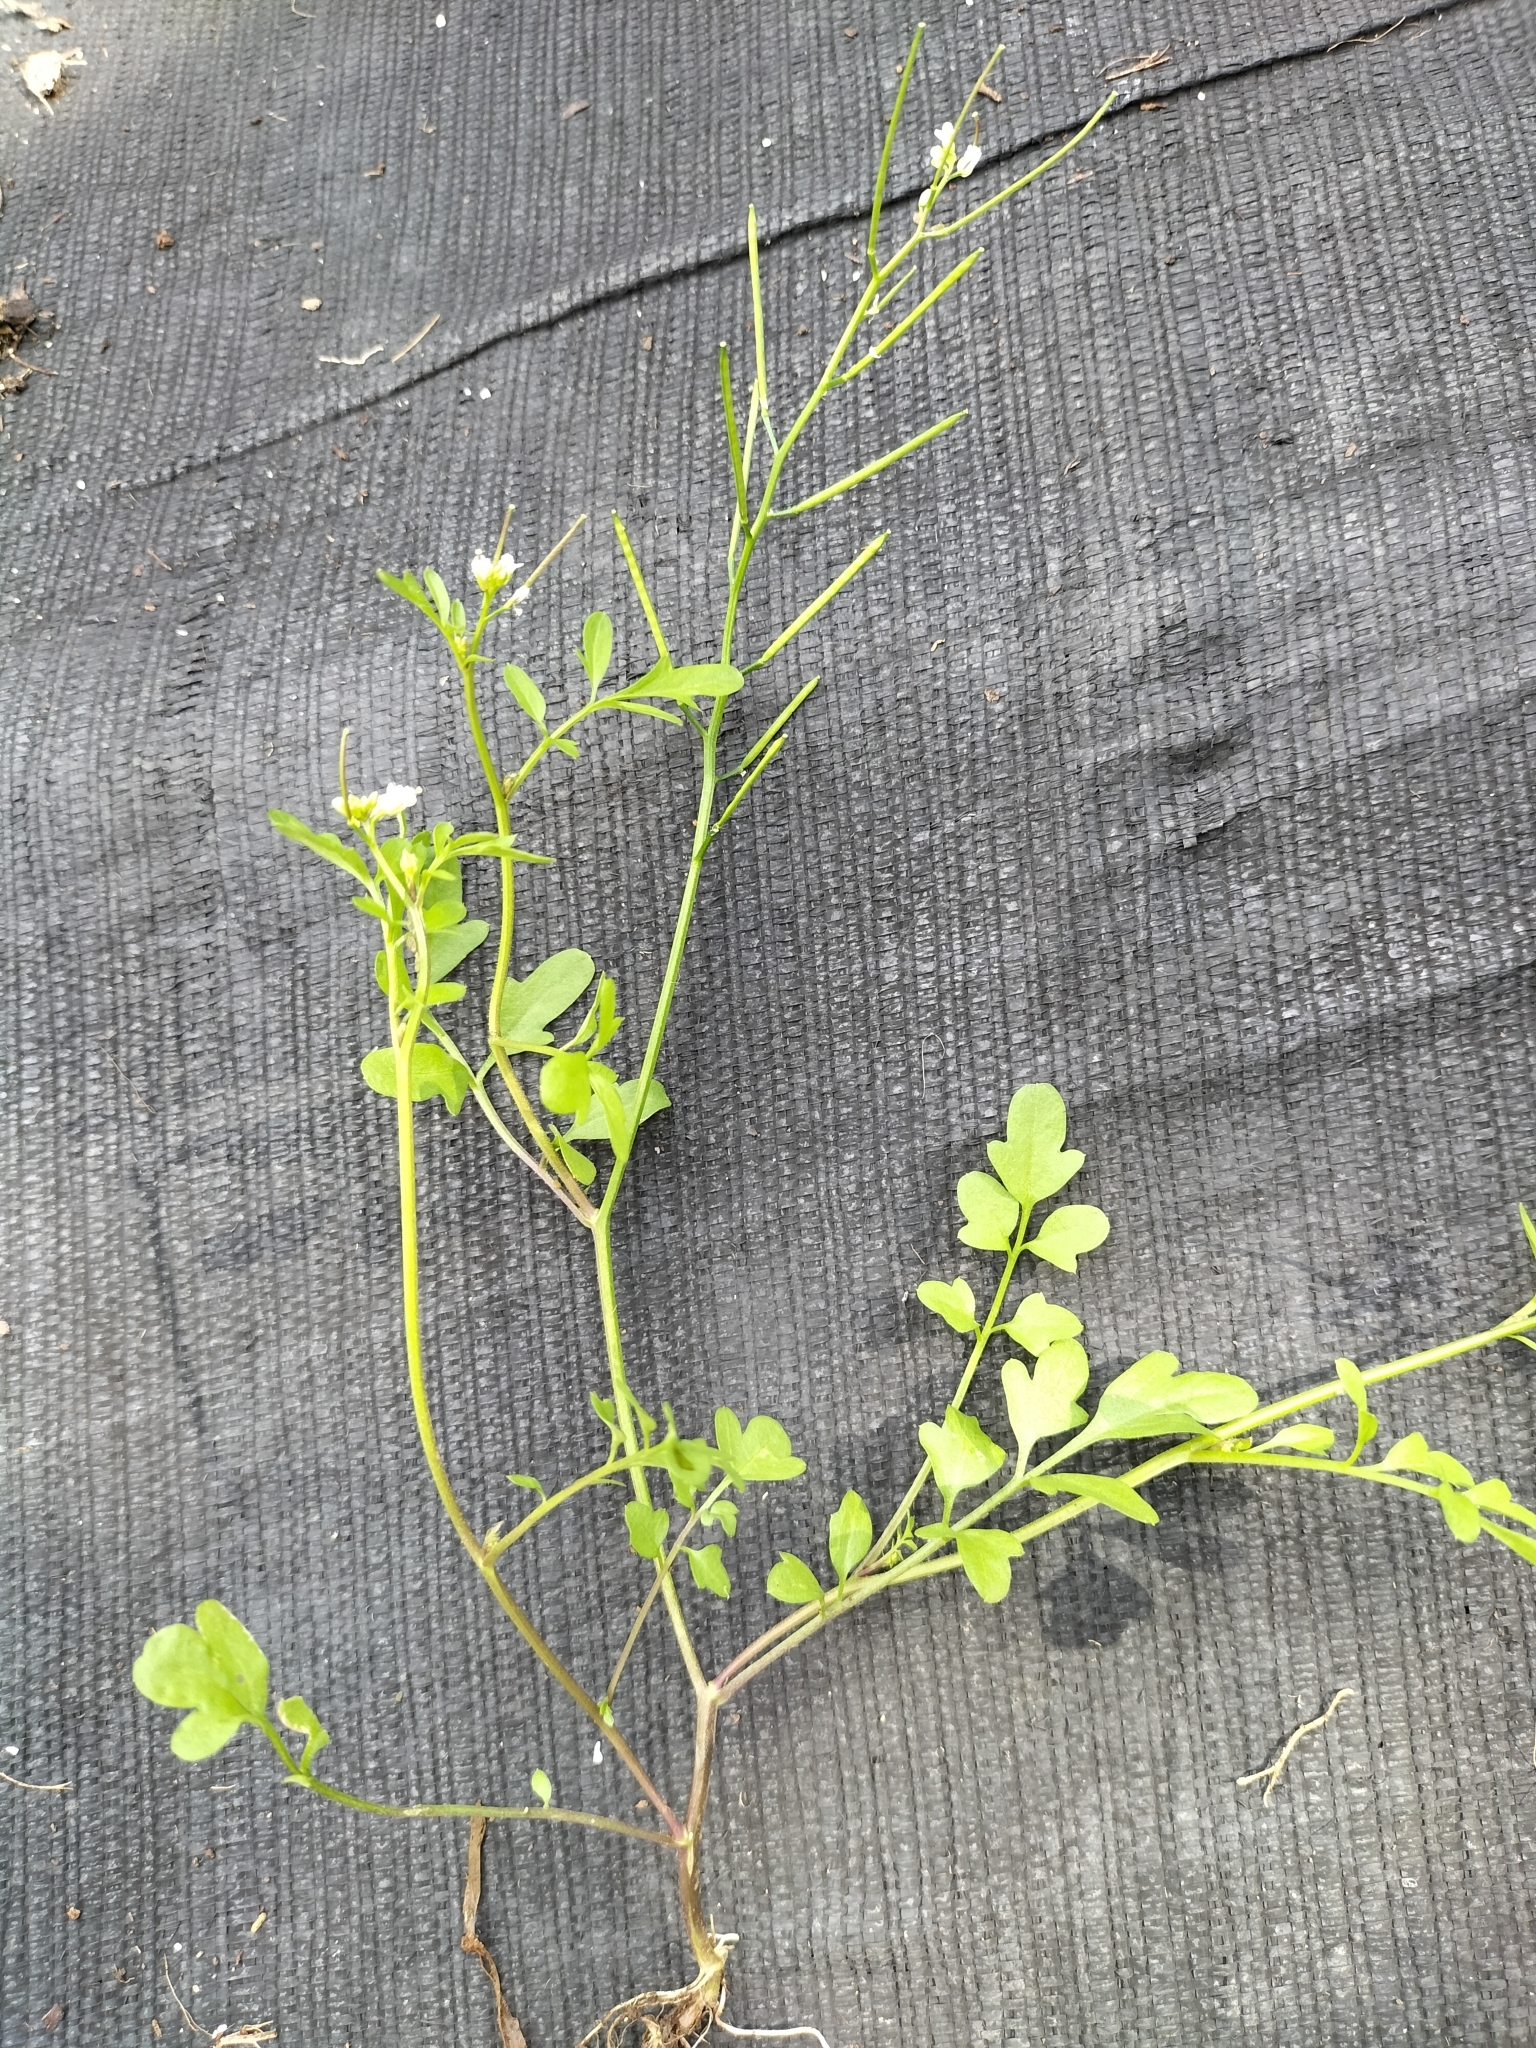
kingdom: Plantae
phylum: Tracheophyta
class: Magnoliopsida
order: Brassicales
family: Brassicaceae
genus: Cardamine
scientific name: Cardamine occulta
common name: Asian wavy bittercress
